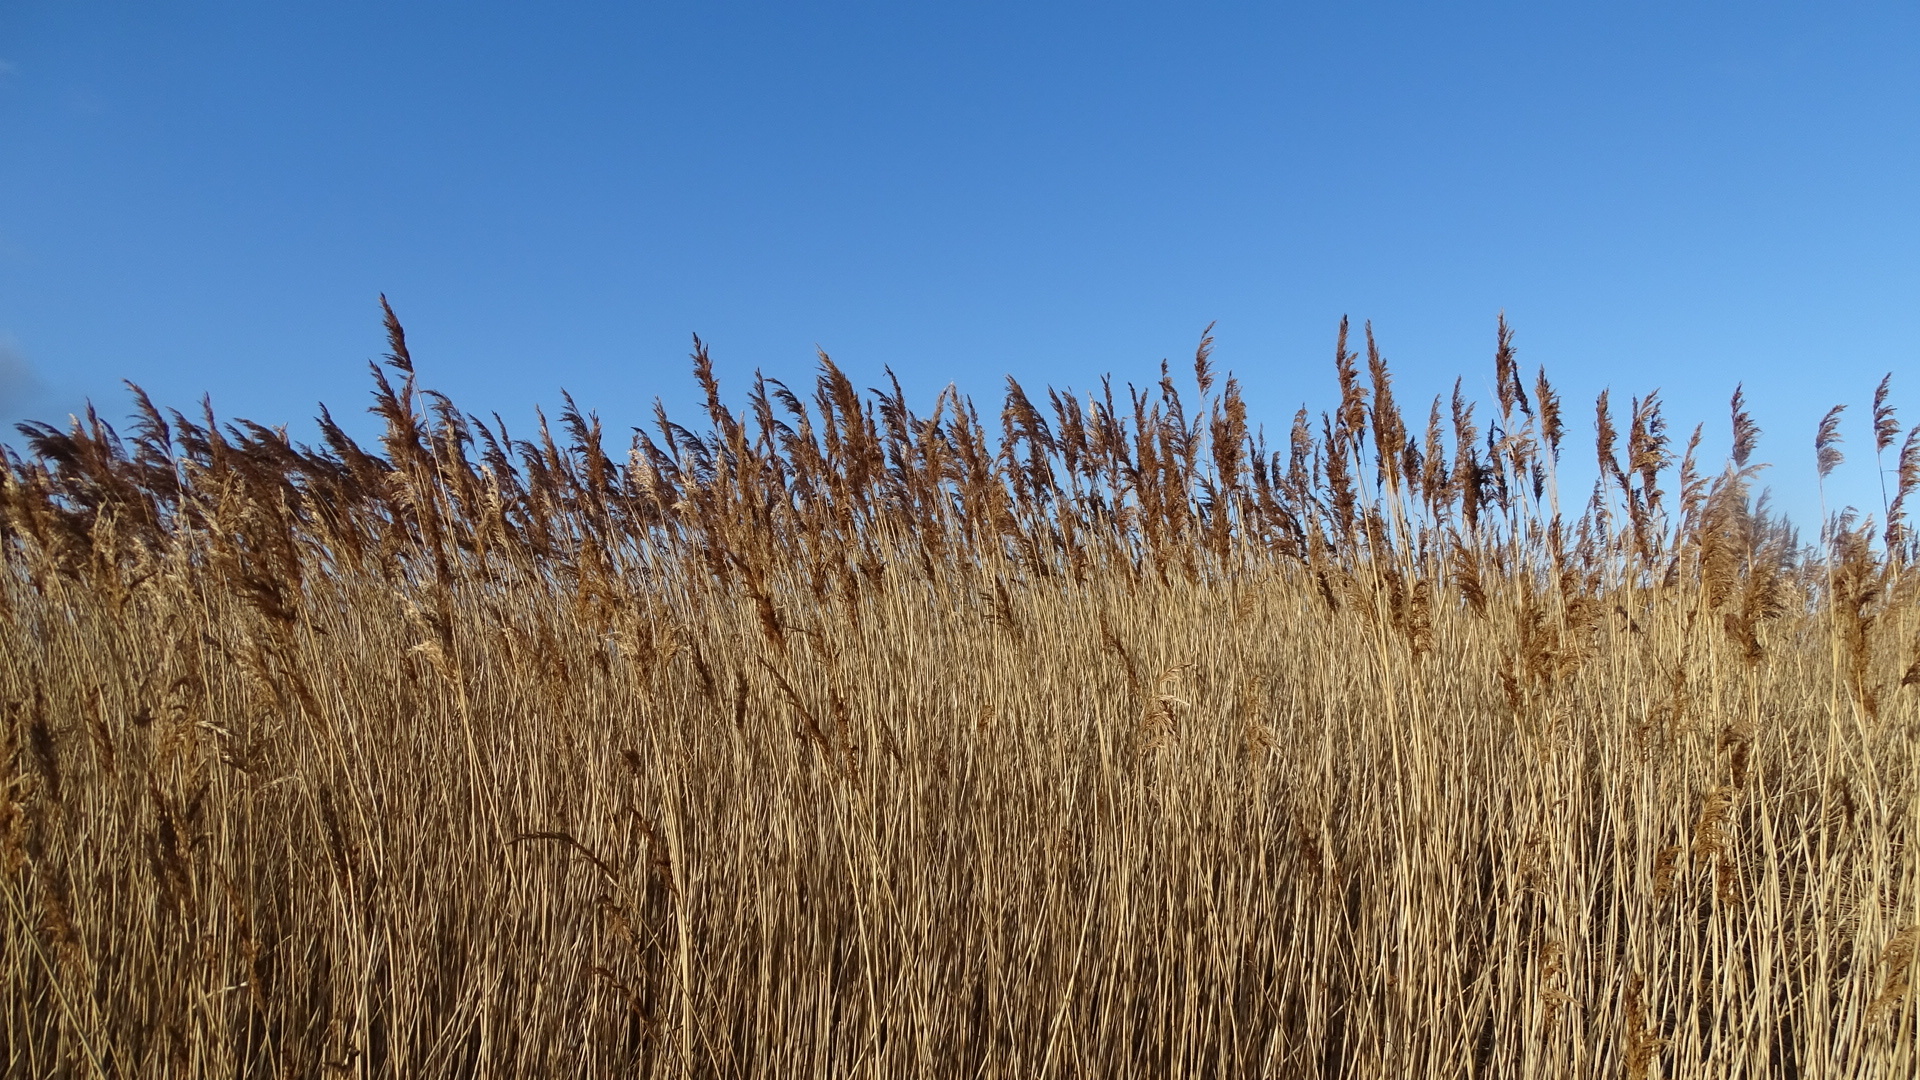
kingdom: Plantae
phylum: Tracheophyta
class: Liliopsida
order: Poales
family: Poaceae
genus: Phragmites
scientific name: Phragmites australis
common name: Common reed
